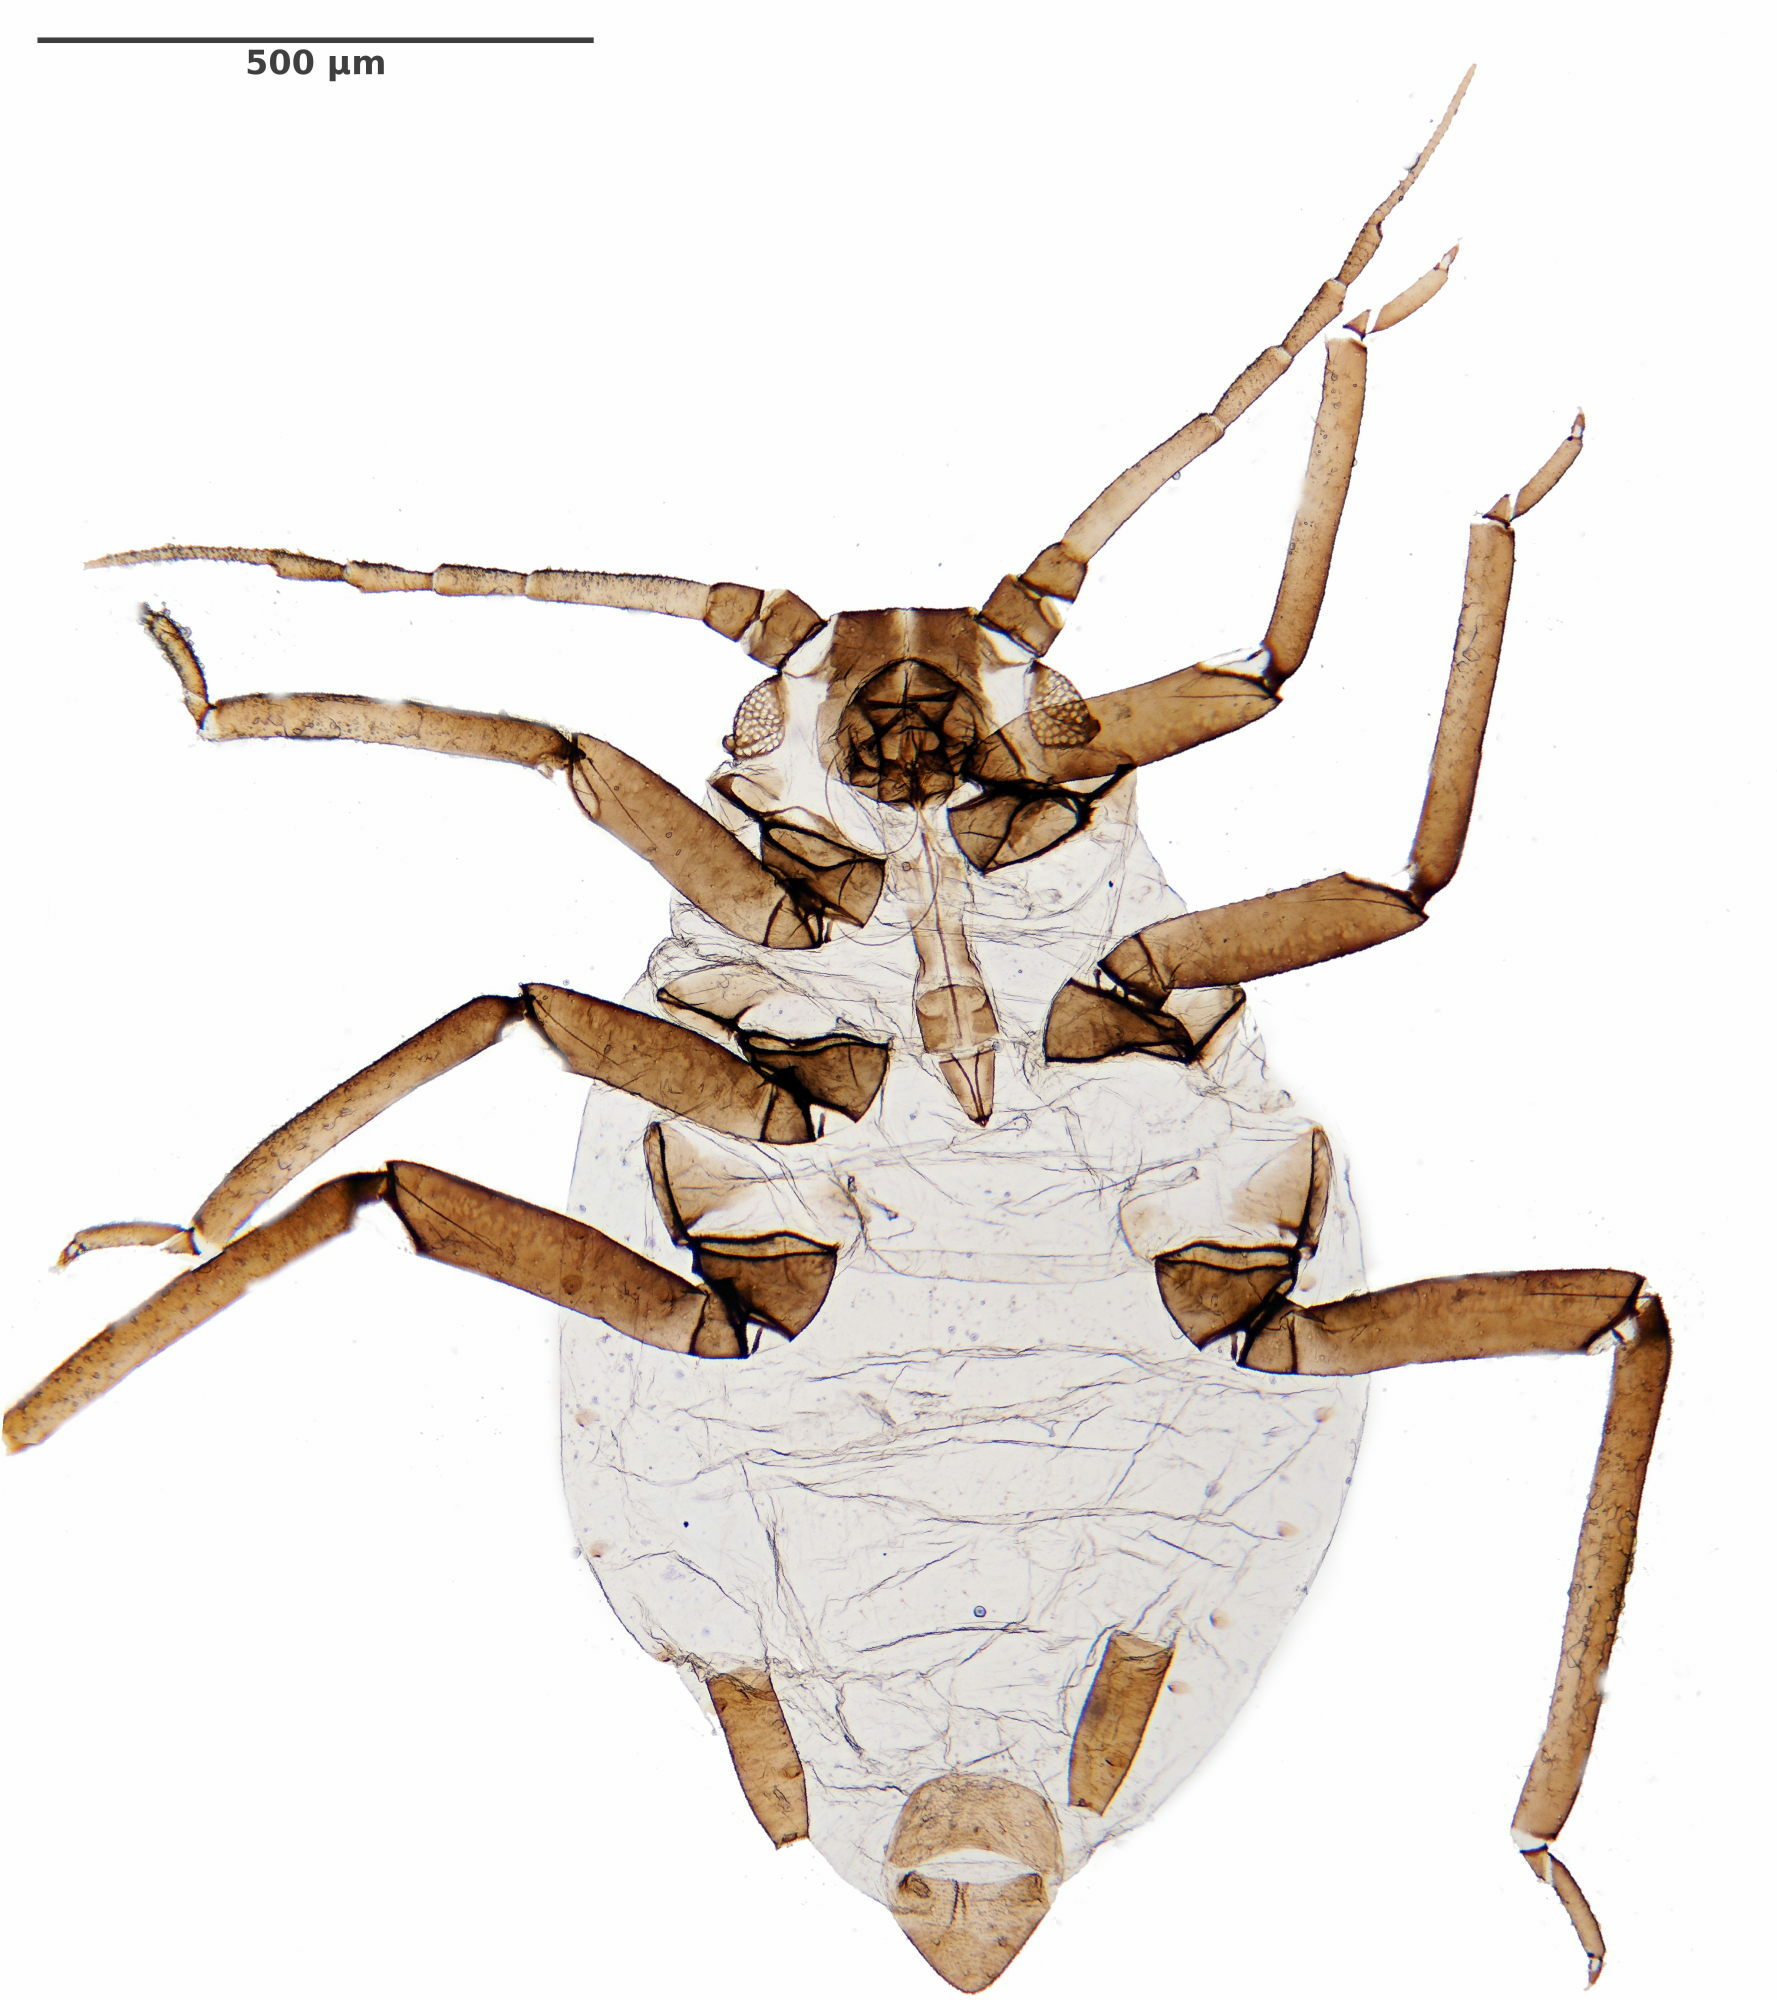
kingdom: Animalia
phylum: Arthropoda
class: Insecta
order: Hemiptera
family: Aphididae
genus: Hyadaphis
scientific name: Hyadaphis
